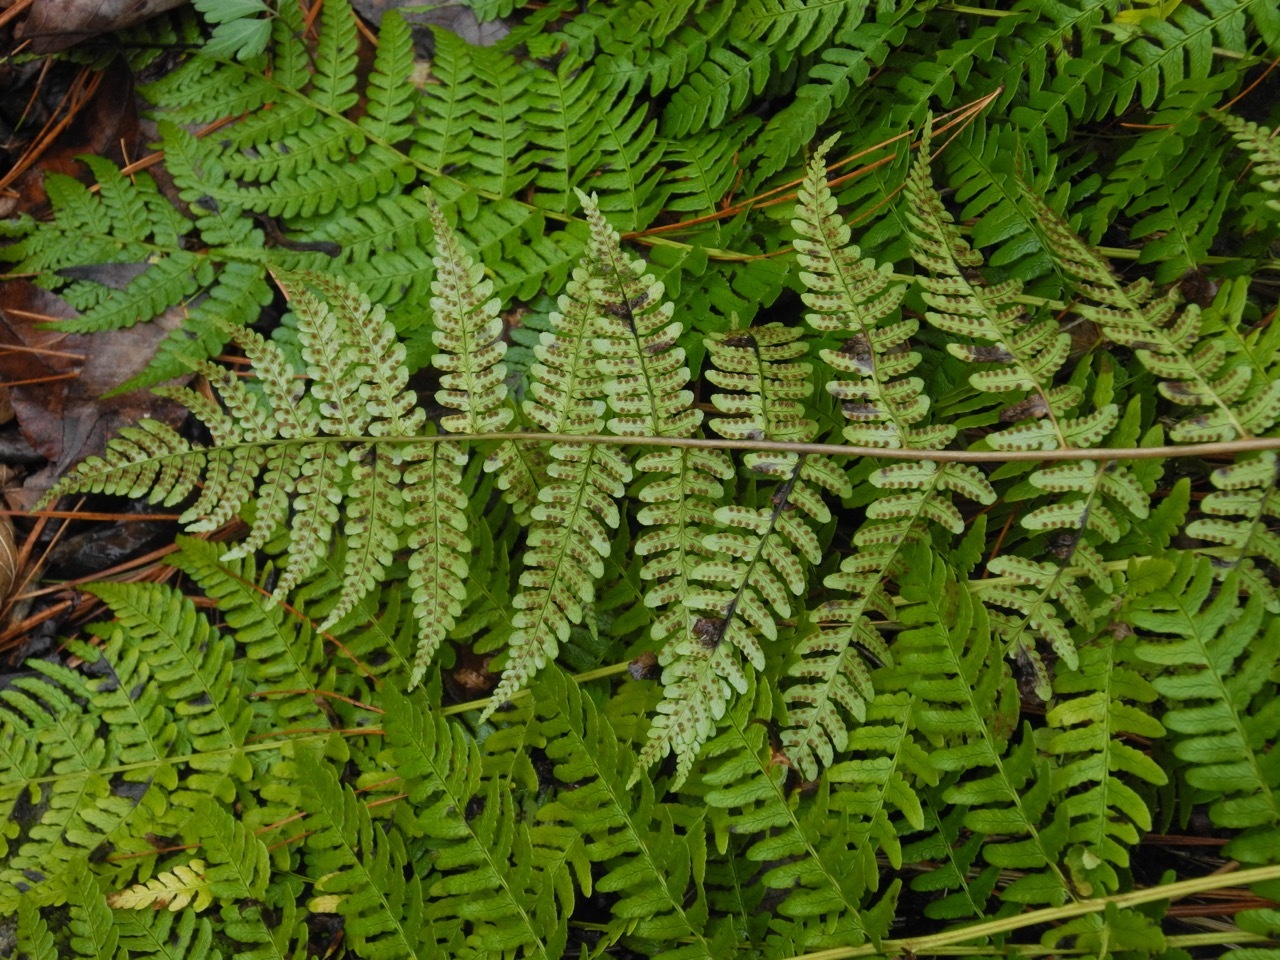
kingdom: Plantae
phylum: Tracheophyta
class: Polypodiopsida
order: Polypodiales
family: Dryopteridaceae
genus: Dryopteris
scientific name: Dryopteris marginalis
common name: Marginal wood fern
